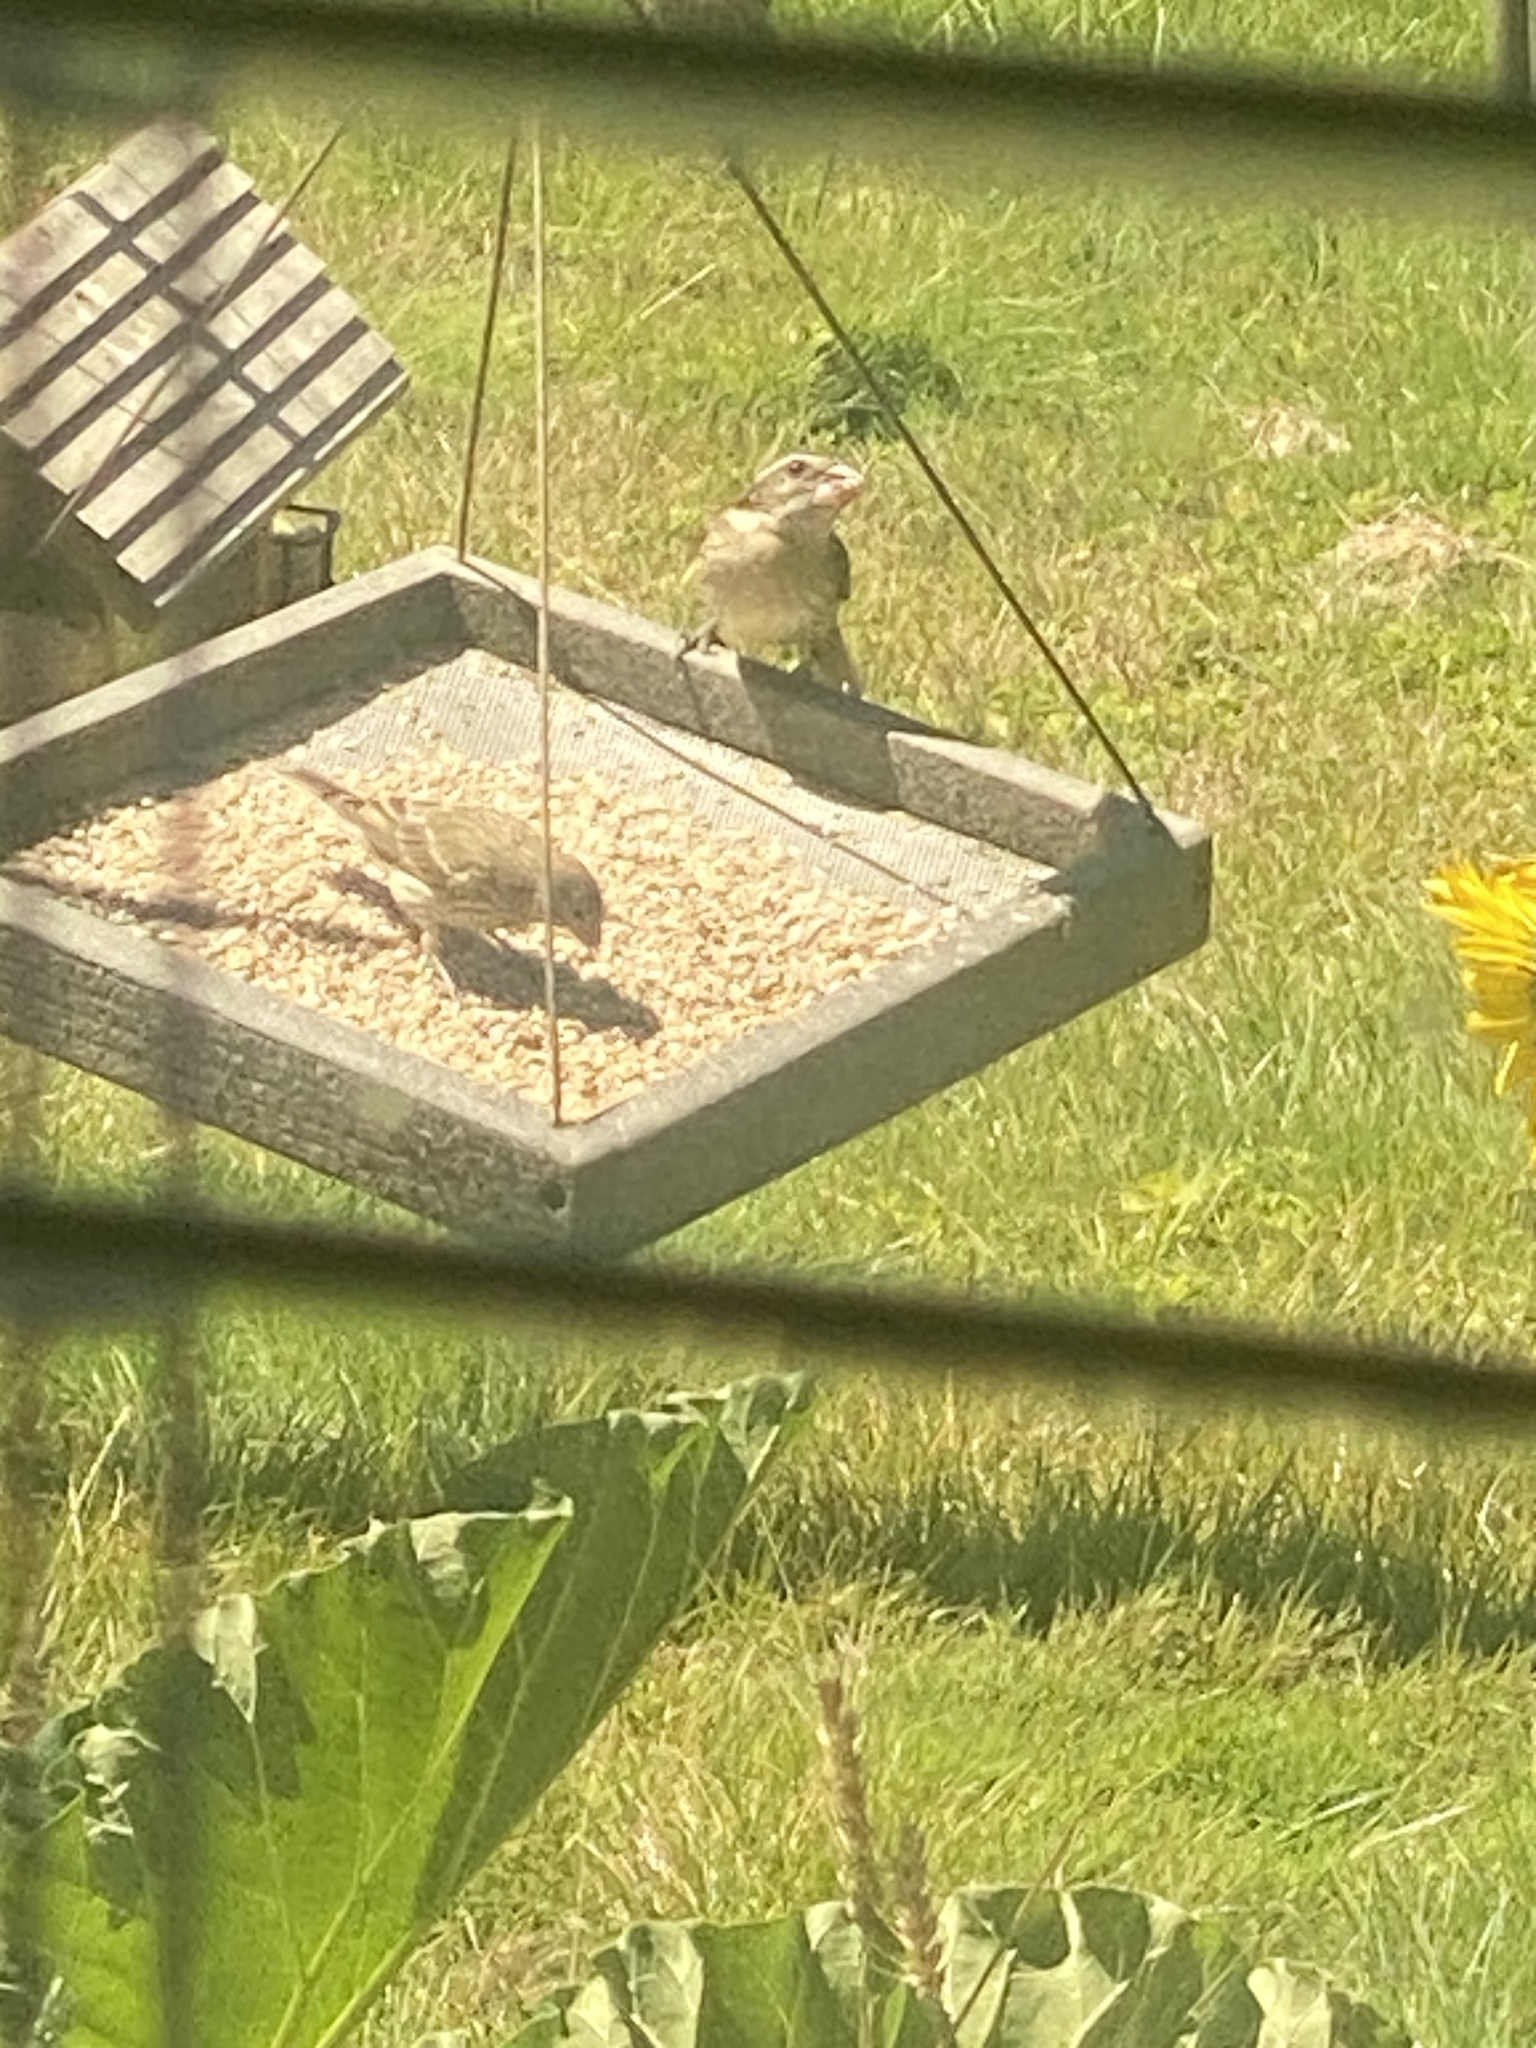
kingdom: Animalia
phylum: Chordata
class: Aves
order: Passeriformes
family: Cardinalidae
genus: Pheucticus
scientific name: Pheucticus melanocephalus
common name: Black-headed grosbeak
